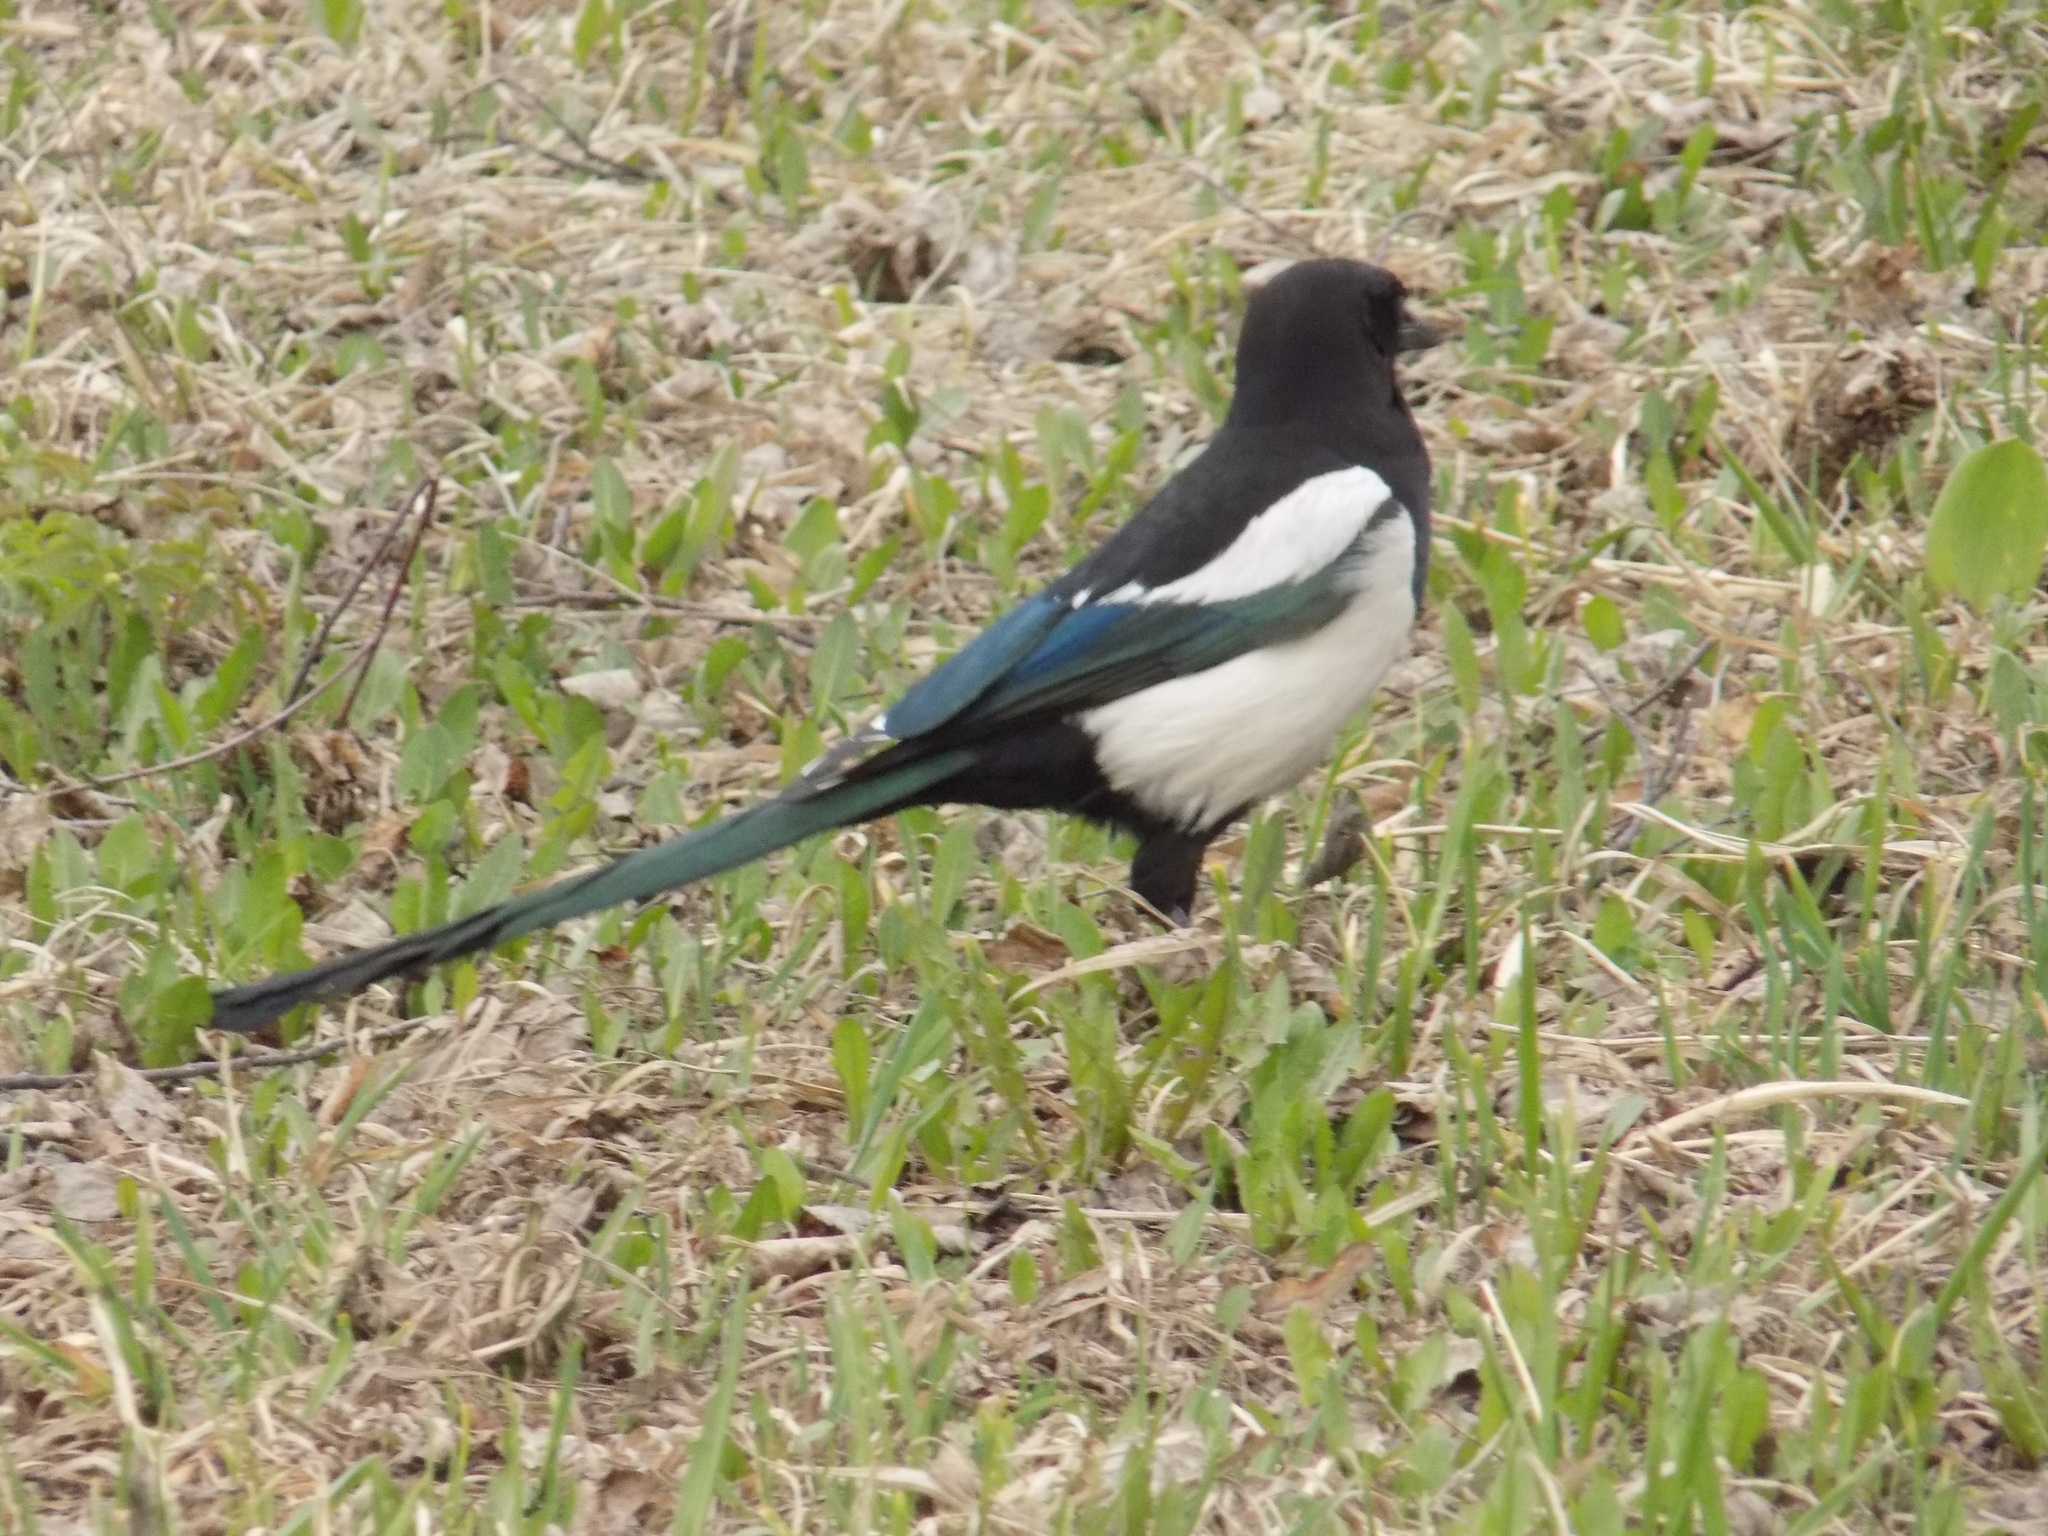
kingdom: Animalia
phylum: Chordata
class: Aves
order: Passeriformes
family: Corvidae
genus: Pica
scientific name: Pica pica
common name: Eurasian magpie
